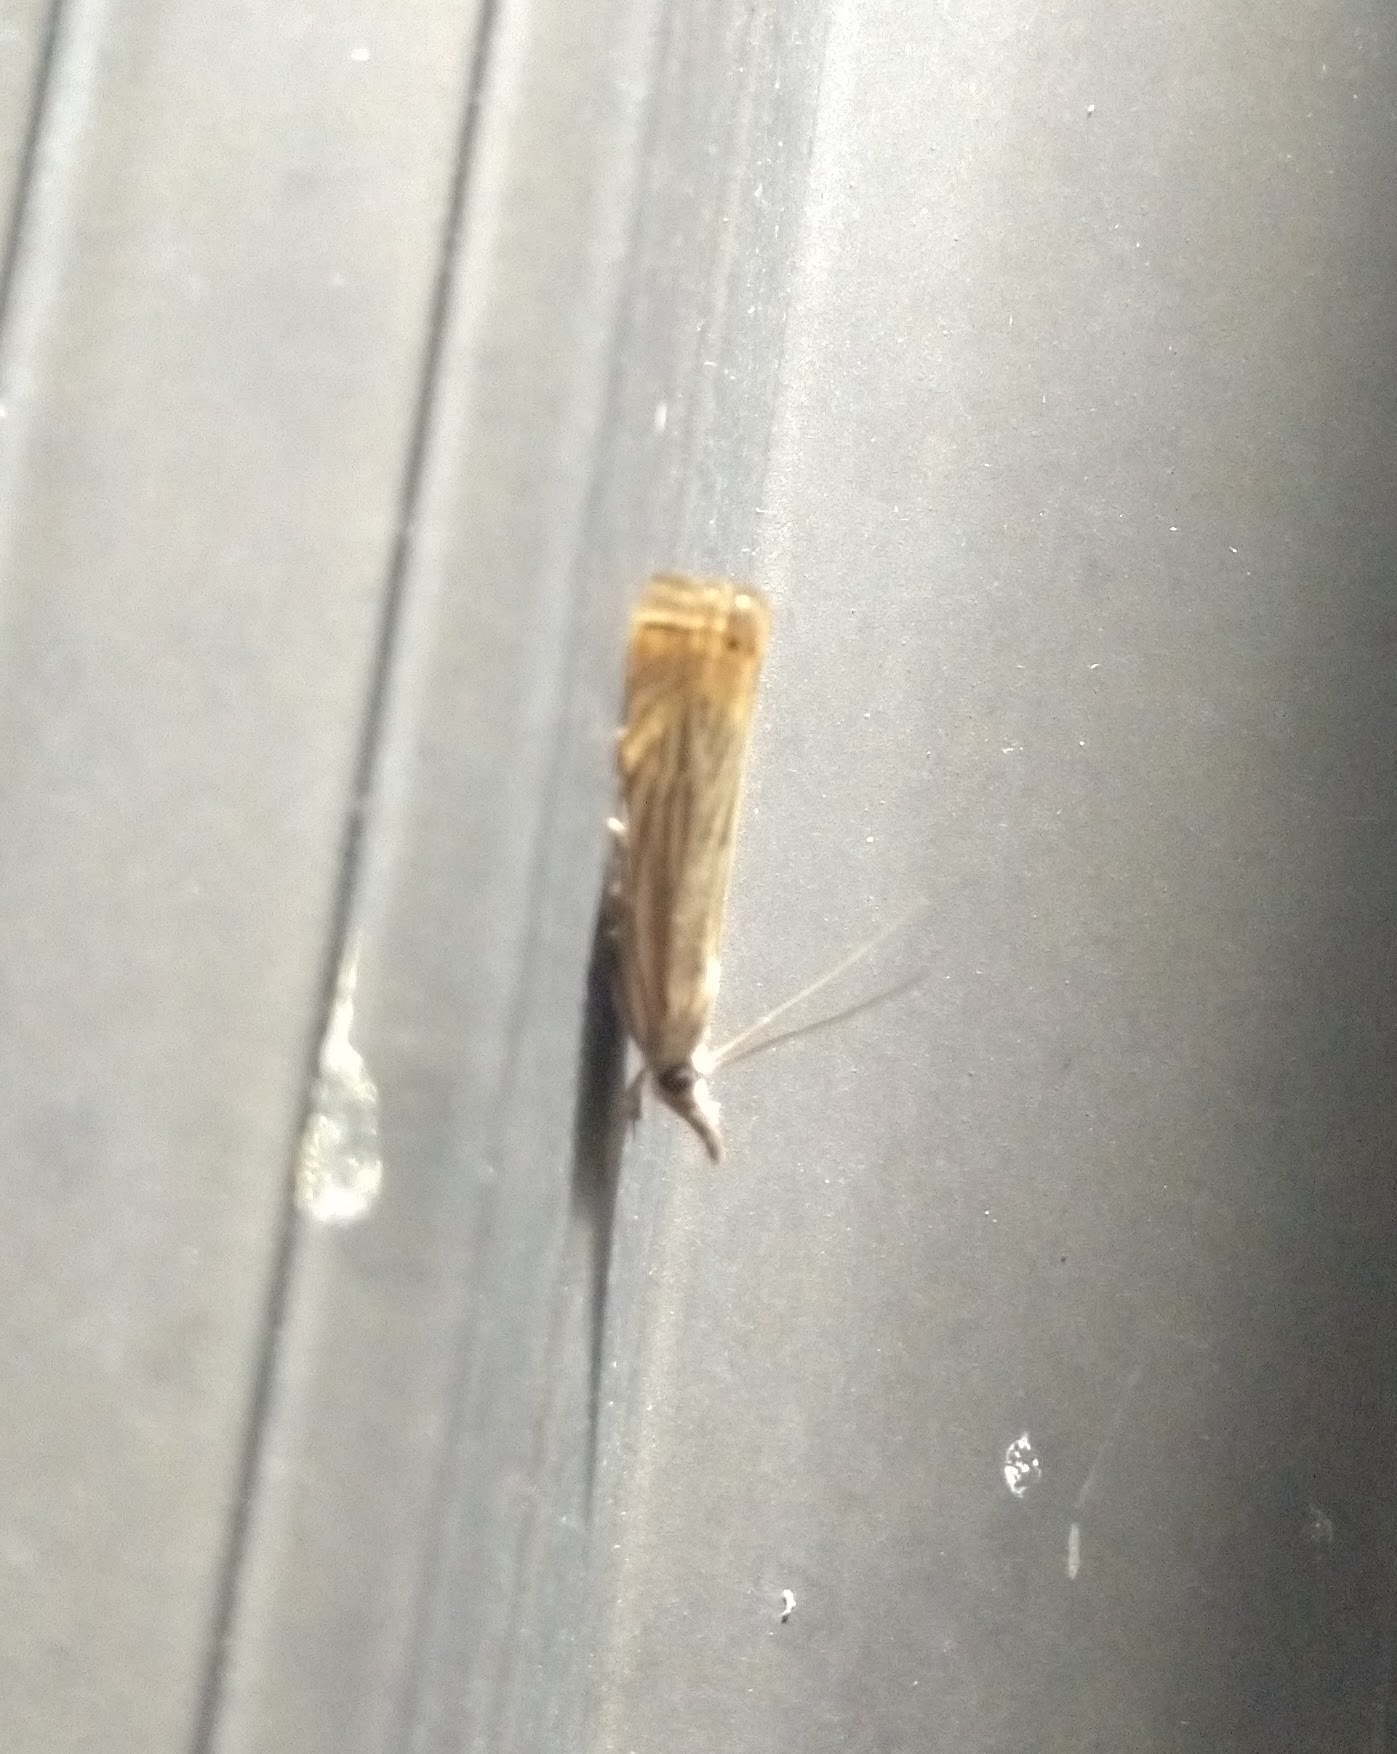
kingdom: Animalia
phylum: Arthropoda
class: Insecta
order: Lepidoptera
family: Crambidae
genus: Chrysoteuchia
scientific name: Chrysoteuchia topiarius
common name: Topiary grass-veneer
